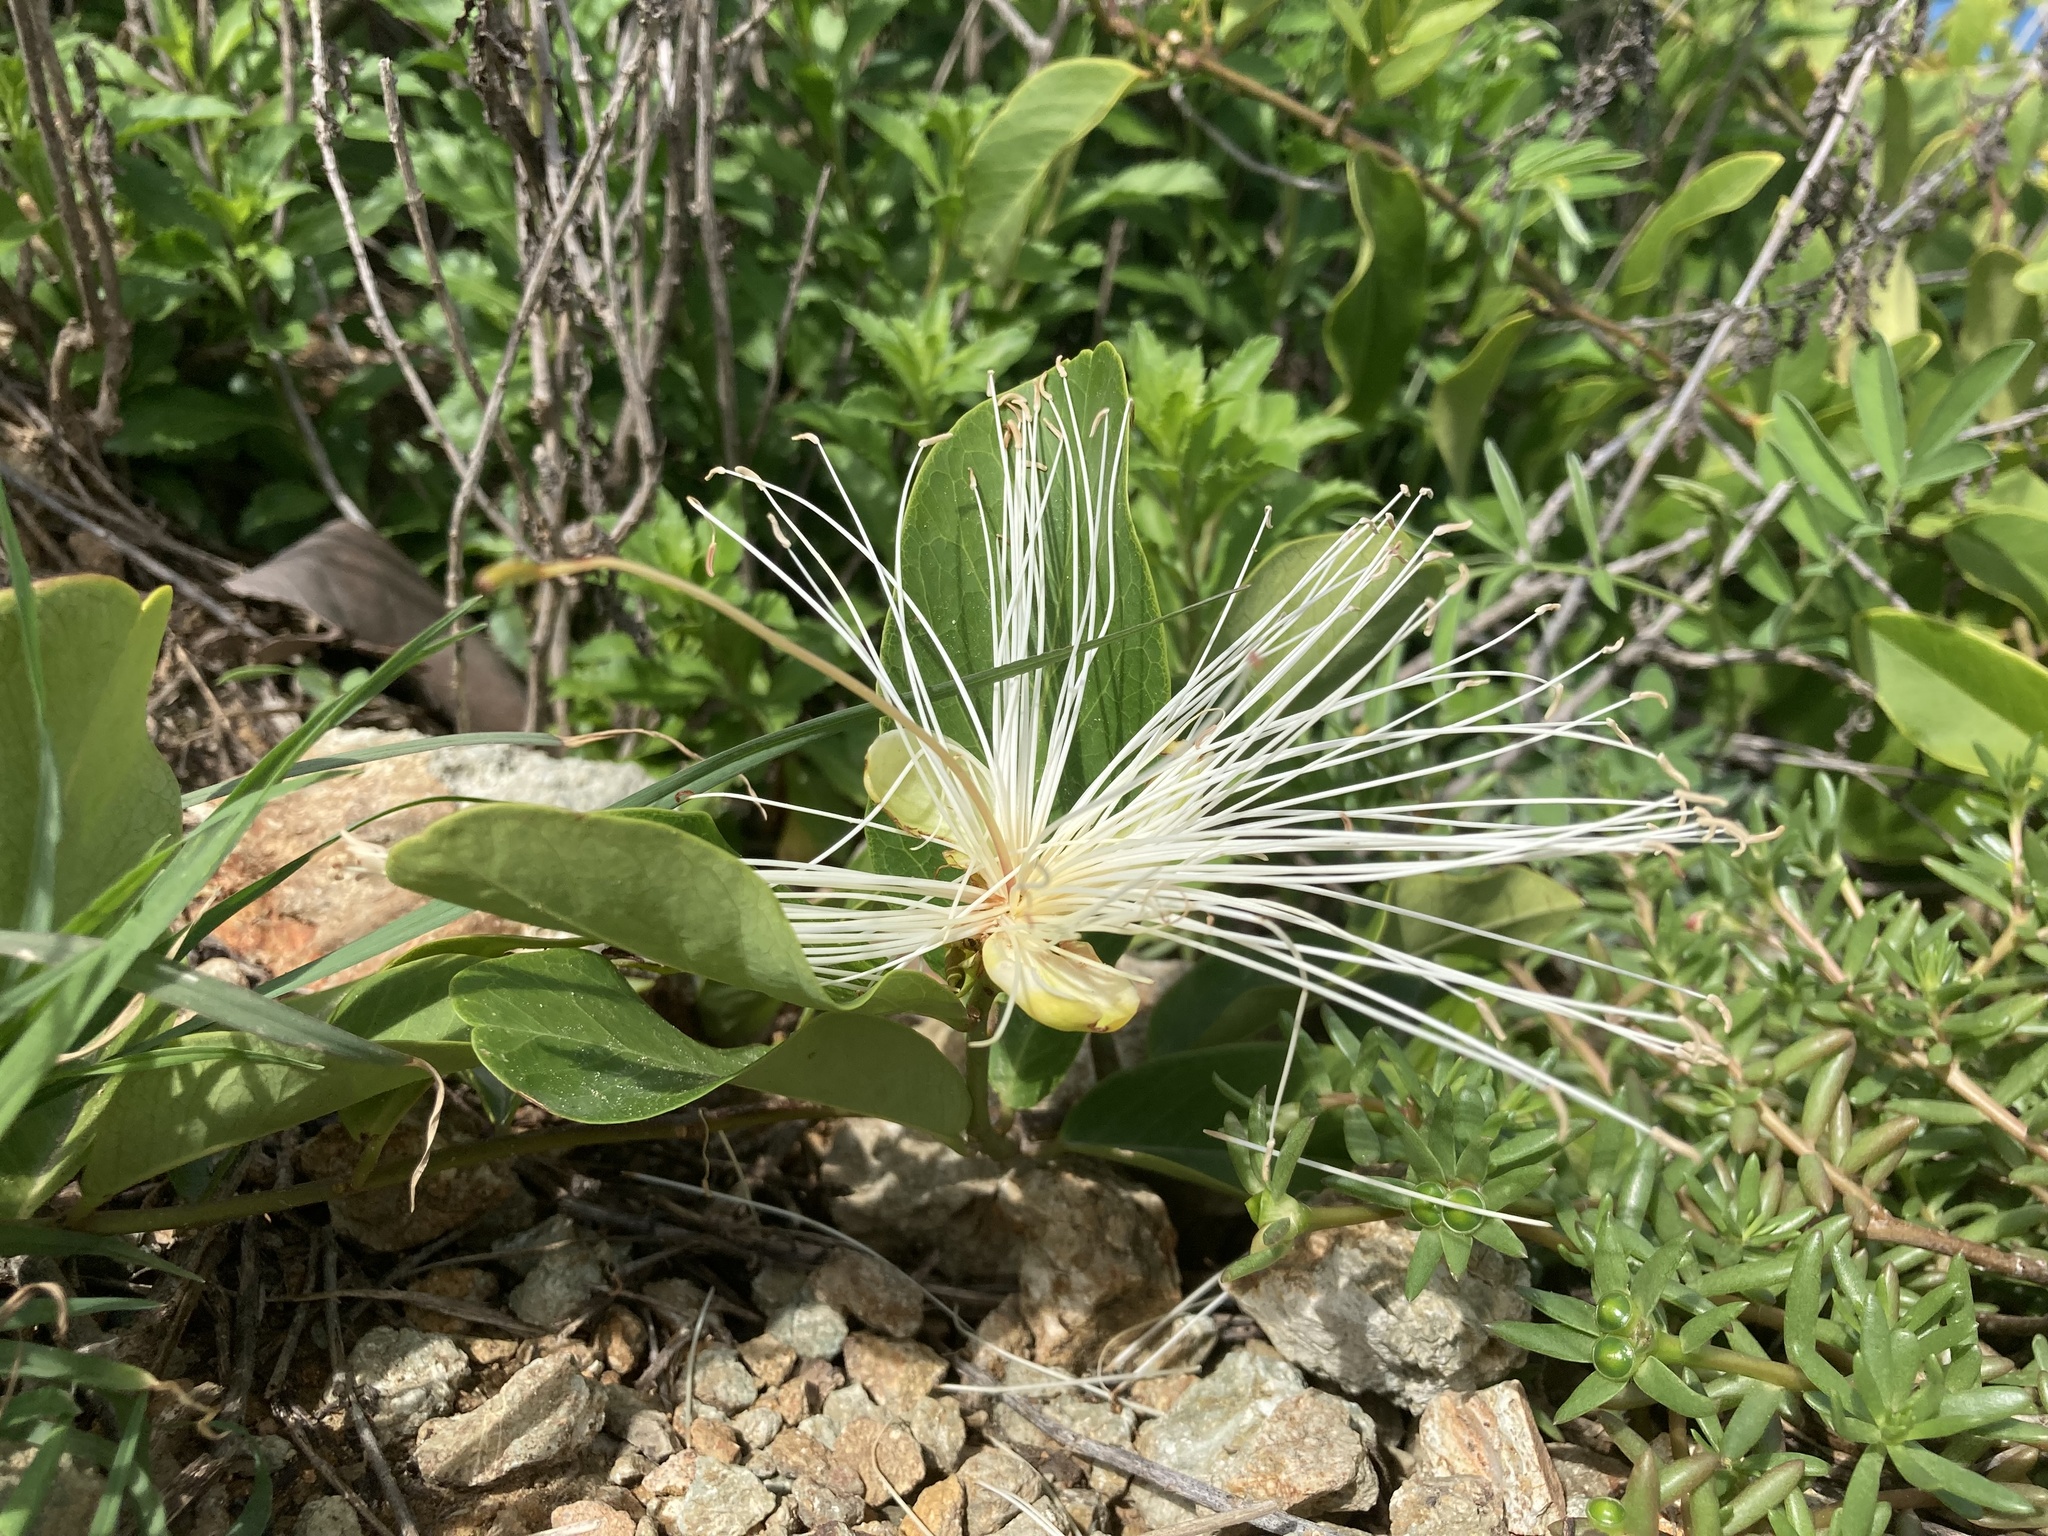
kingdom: Plantae
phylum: Tracheophyta
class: Magnoliopsida
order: Brassicales
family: Capparaceae
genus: Cynophalla
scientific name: Cynophalla flexuosa
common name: Capertree
